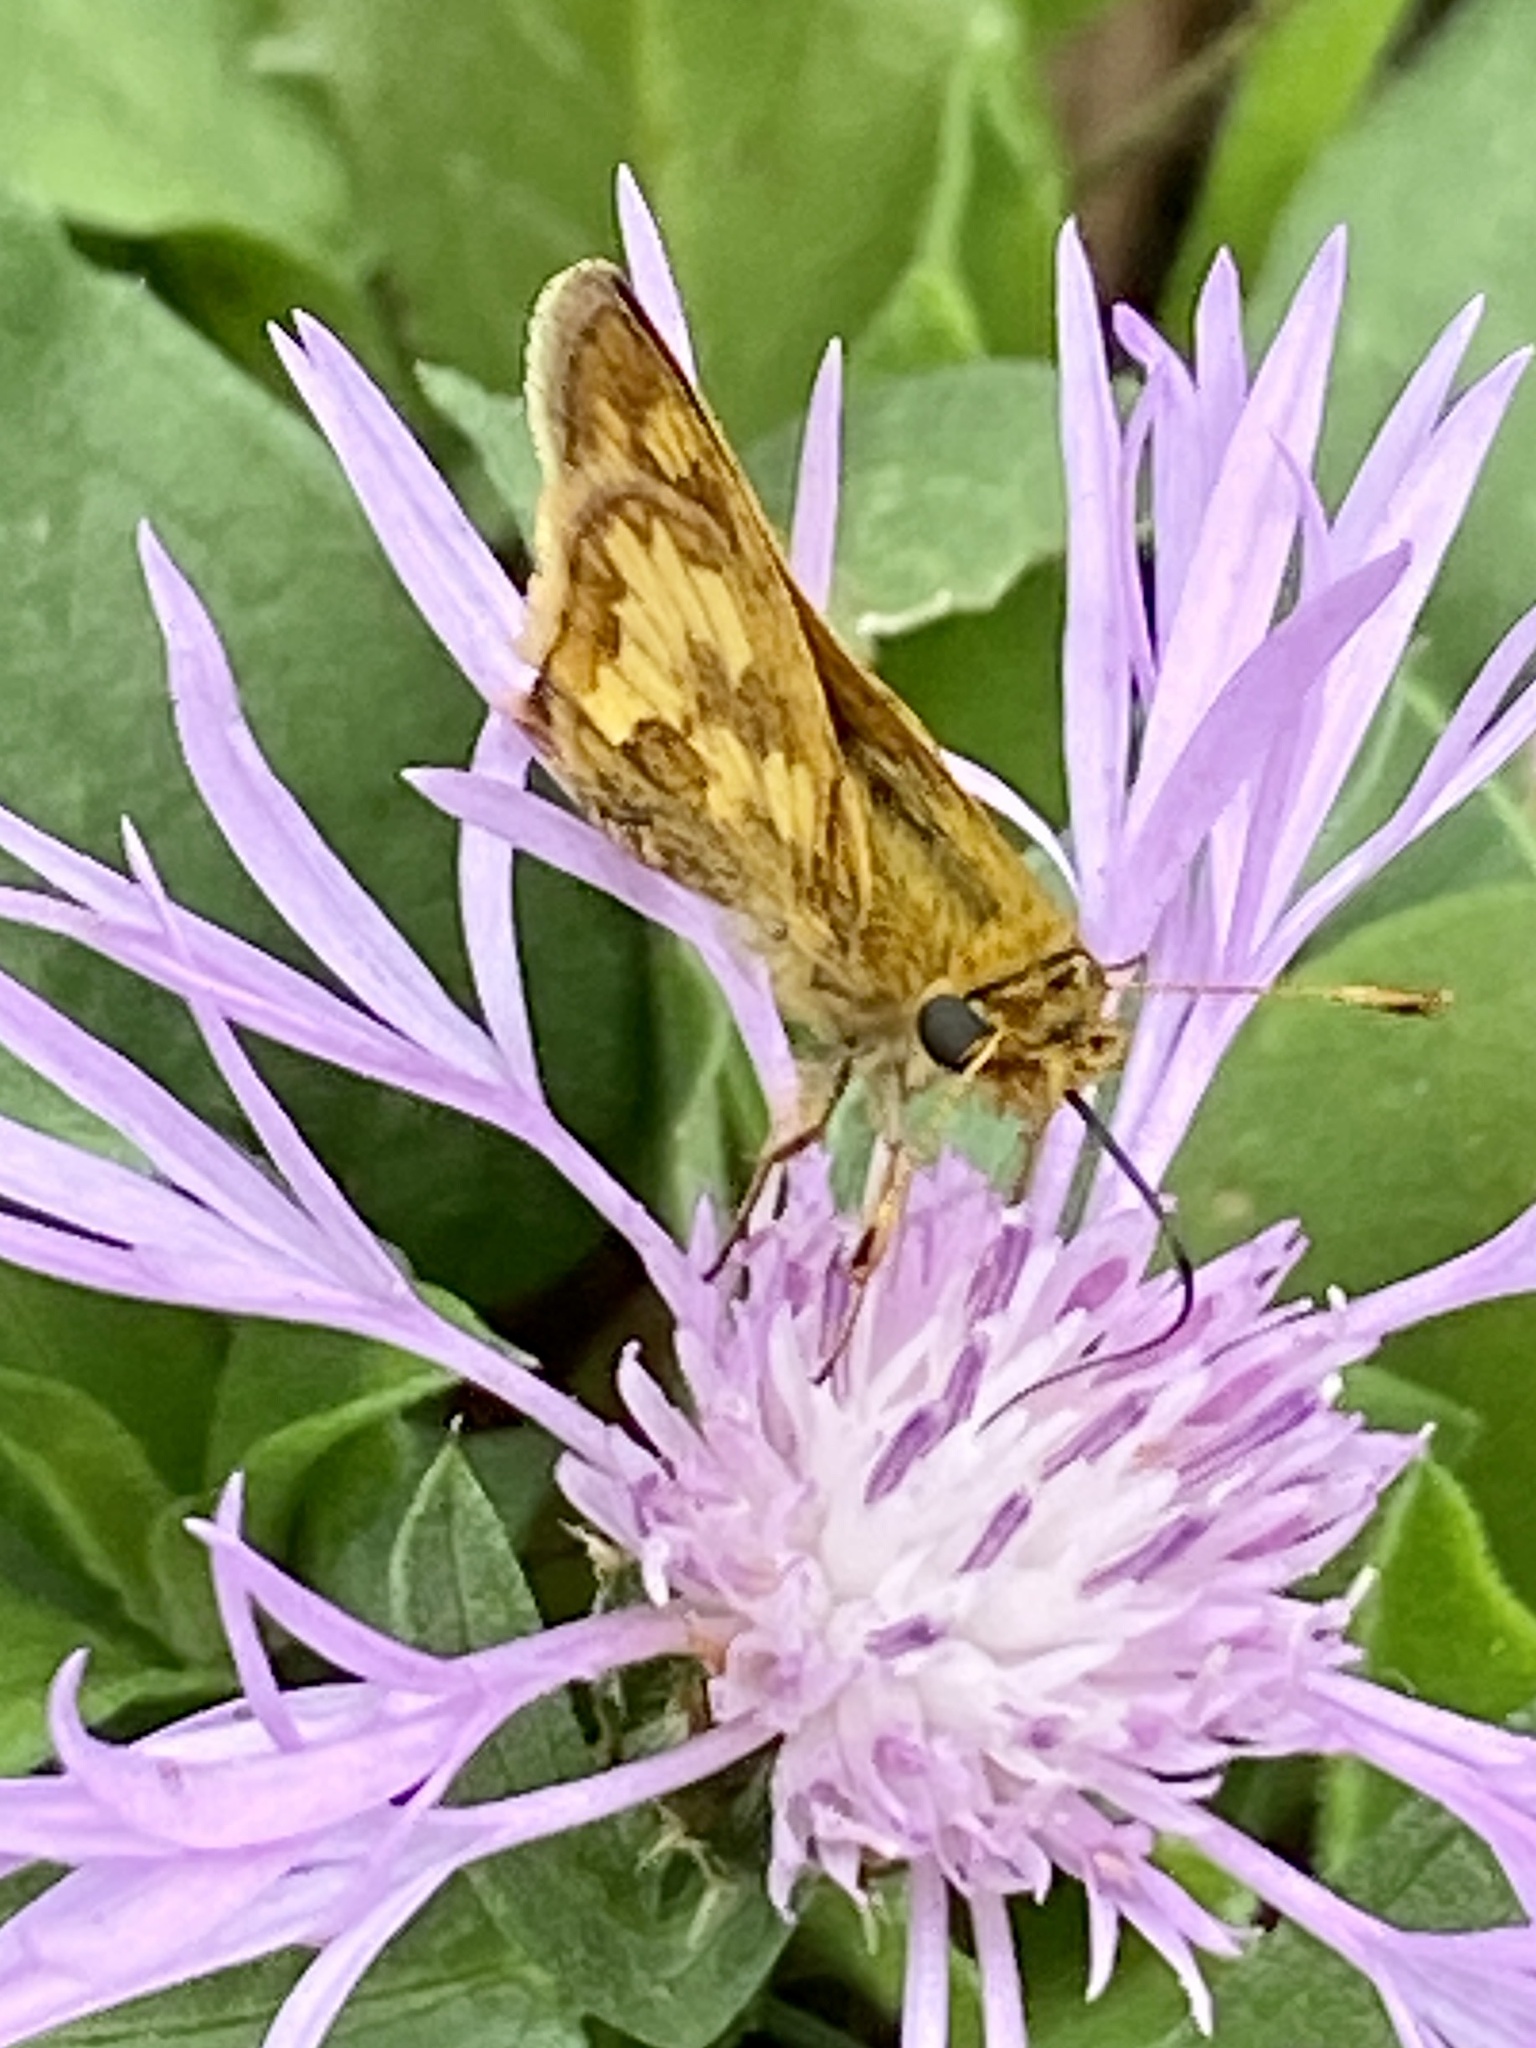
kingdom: Animalia
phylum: Arthropoda
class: Insecta
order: Lepidoptera
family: Hesperiidae
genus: Polites
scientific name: Polites coras
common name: Peck's skipper
